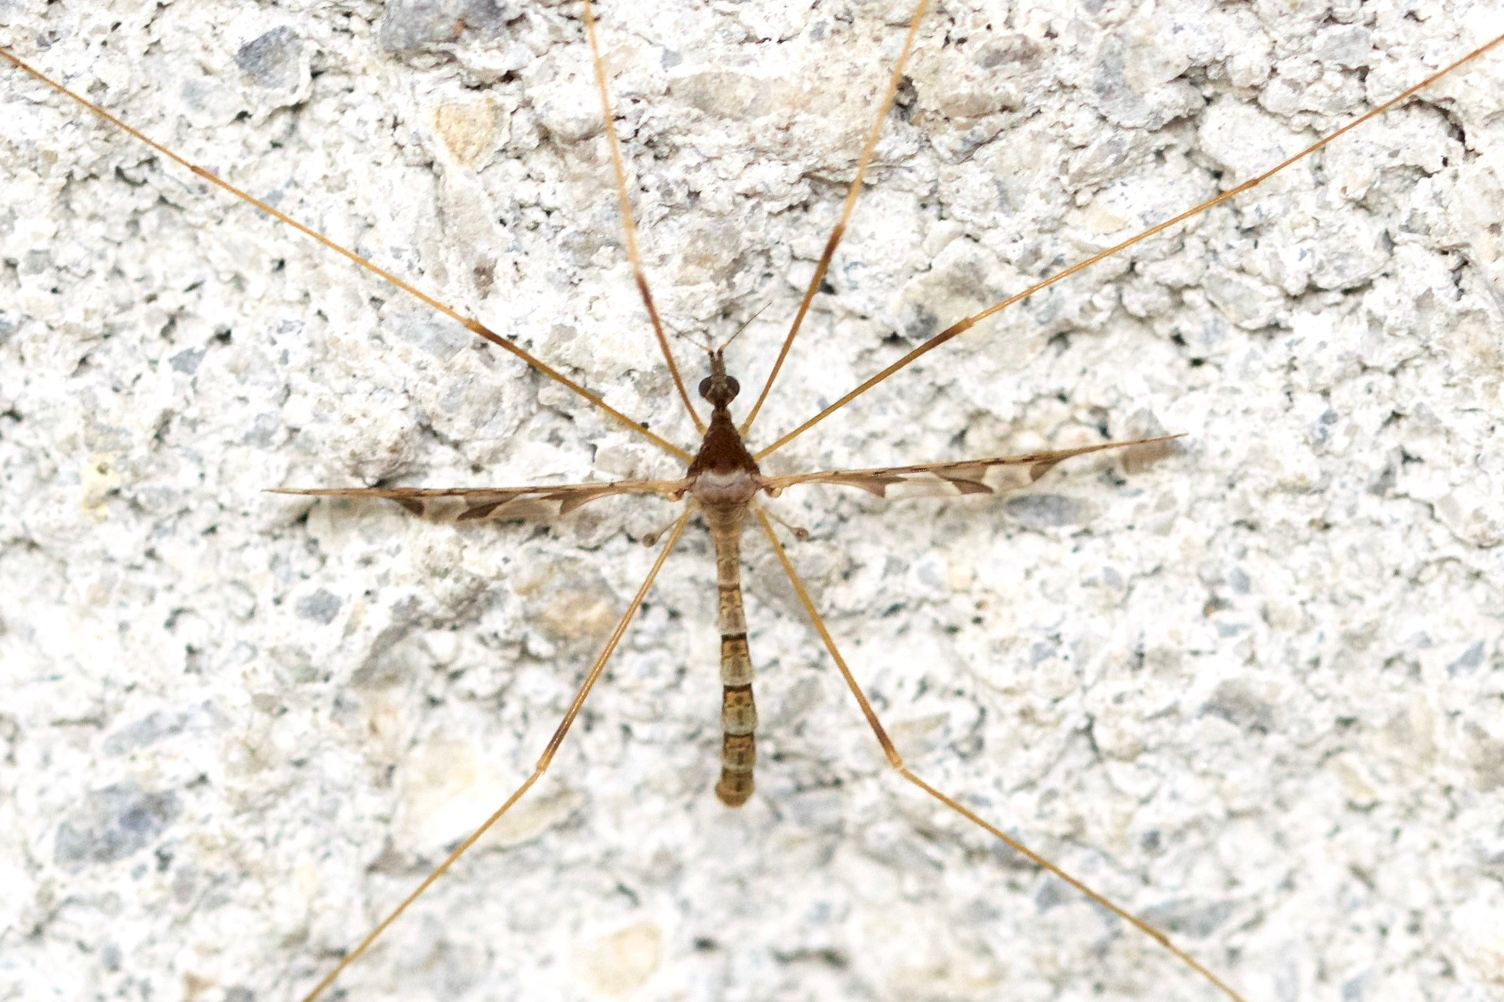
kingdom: Animalia
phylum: Arthropoda
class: Insecta
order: Diptera
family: Limoniidae
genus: Epiphragma
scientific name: Epiphragma solatrix
